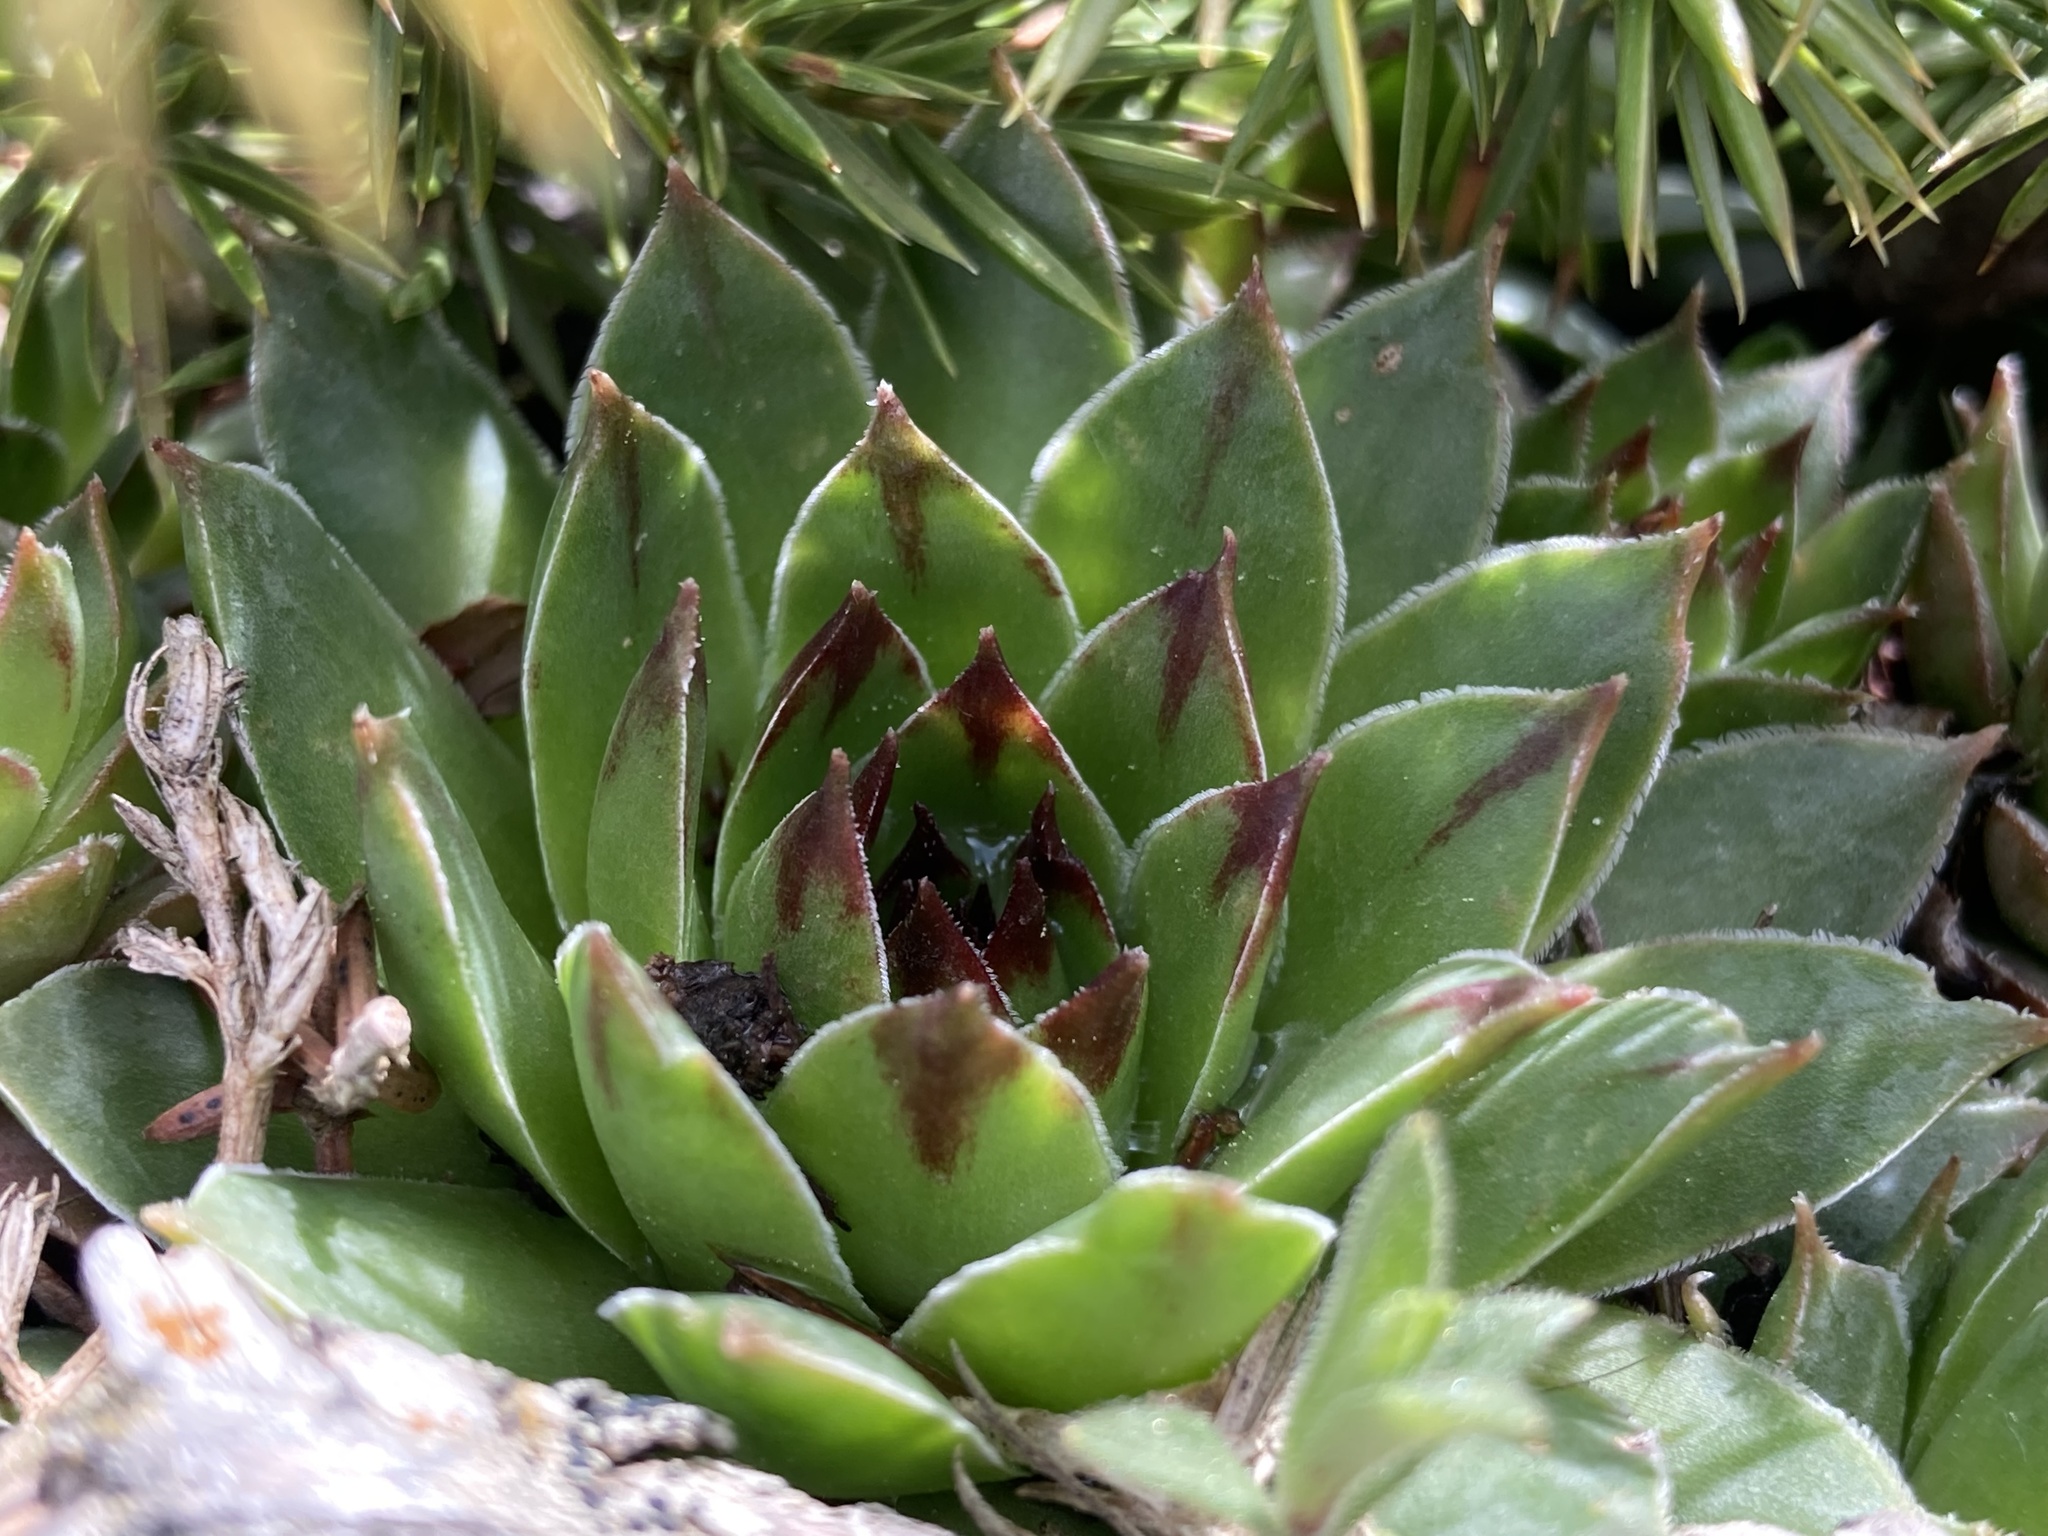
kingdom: Plantae
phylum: Tracheophyta
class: Magnoliopsida
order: Saxifragales
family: Crassulaceae
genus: Sempervivum
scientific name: Sempervivum tectorum
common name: House-leek
